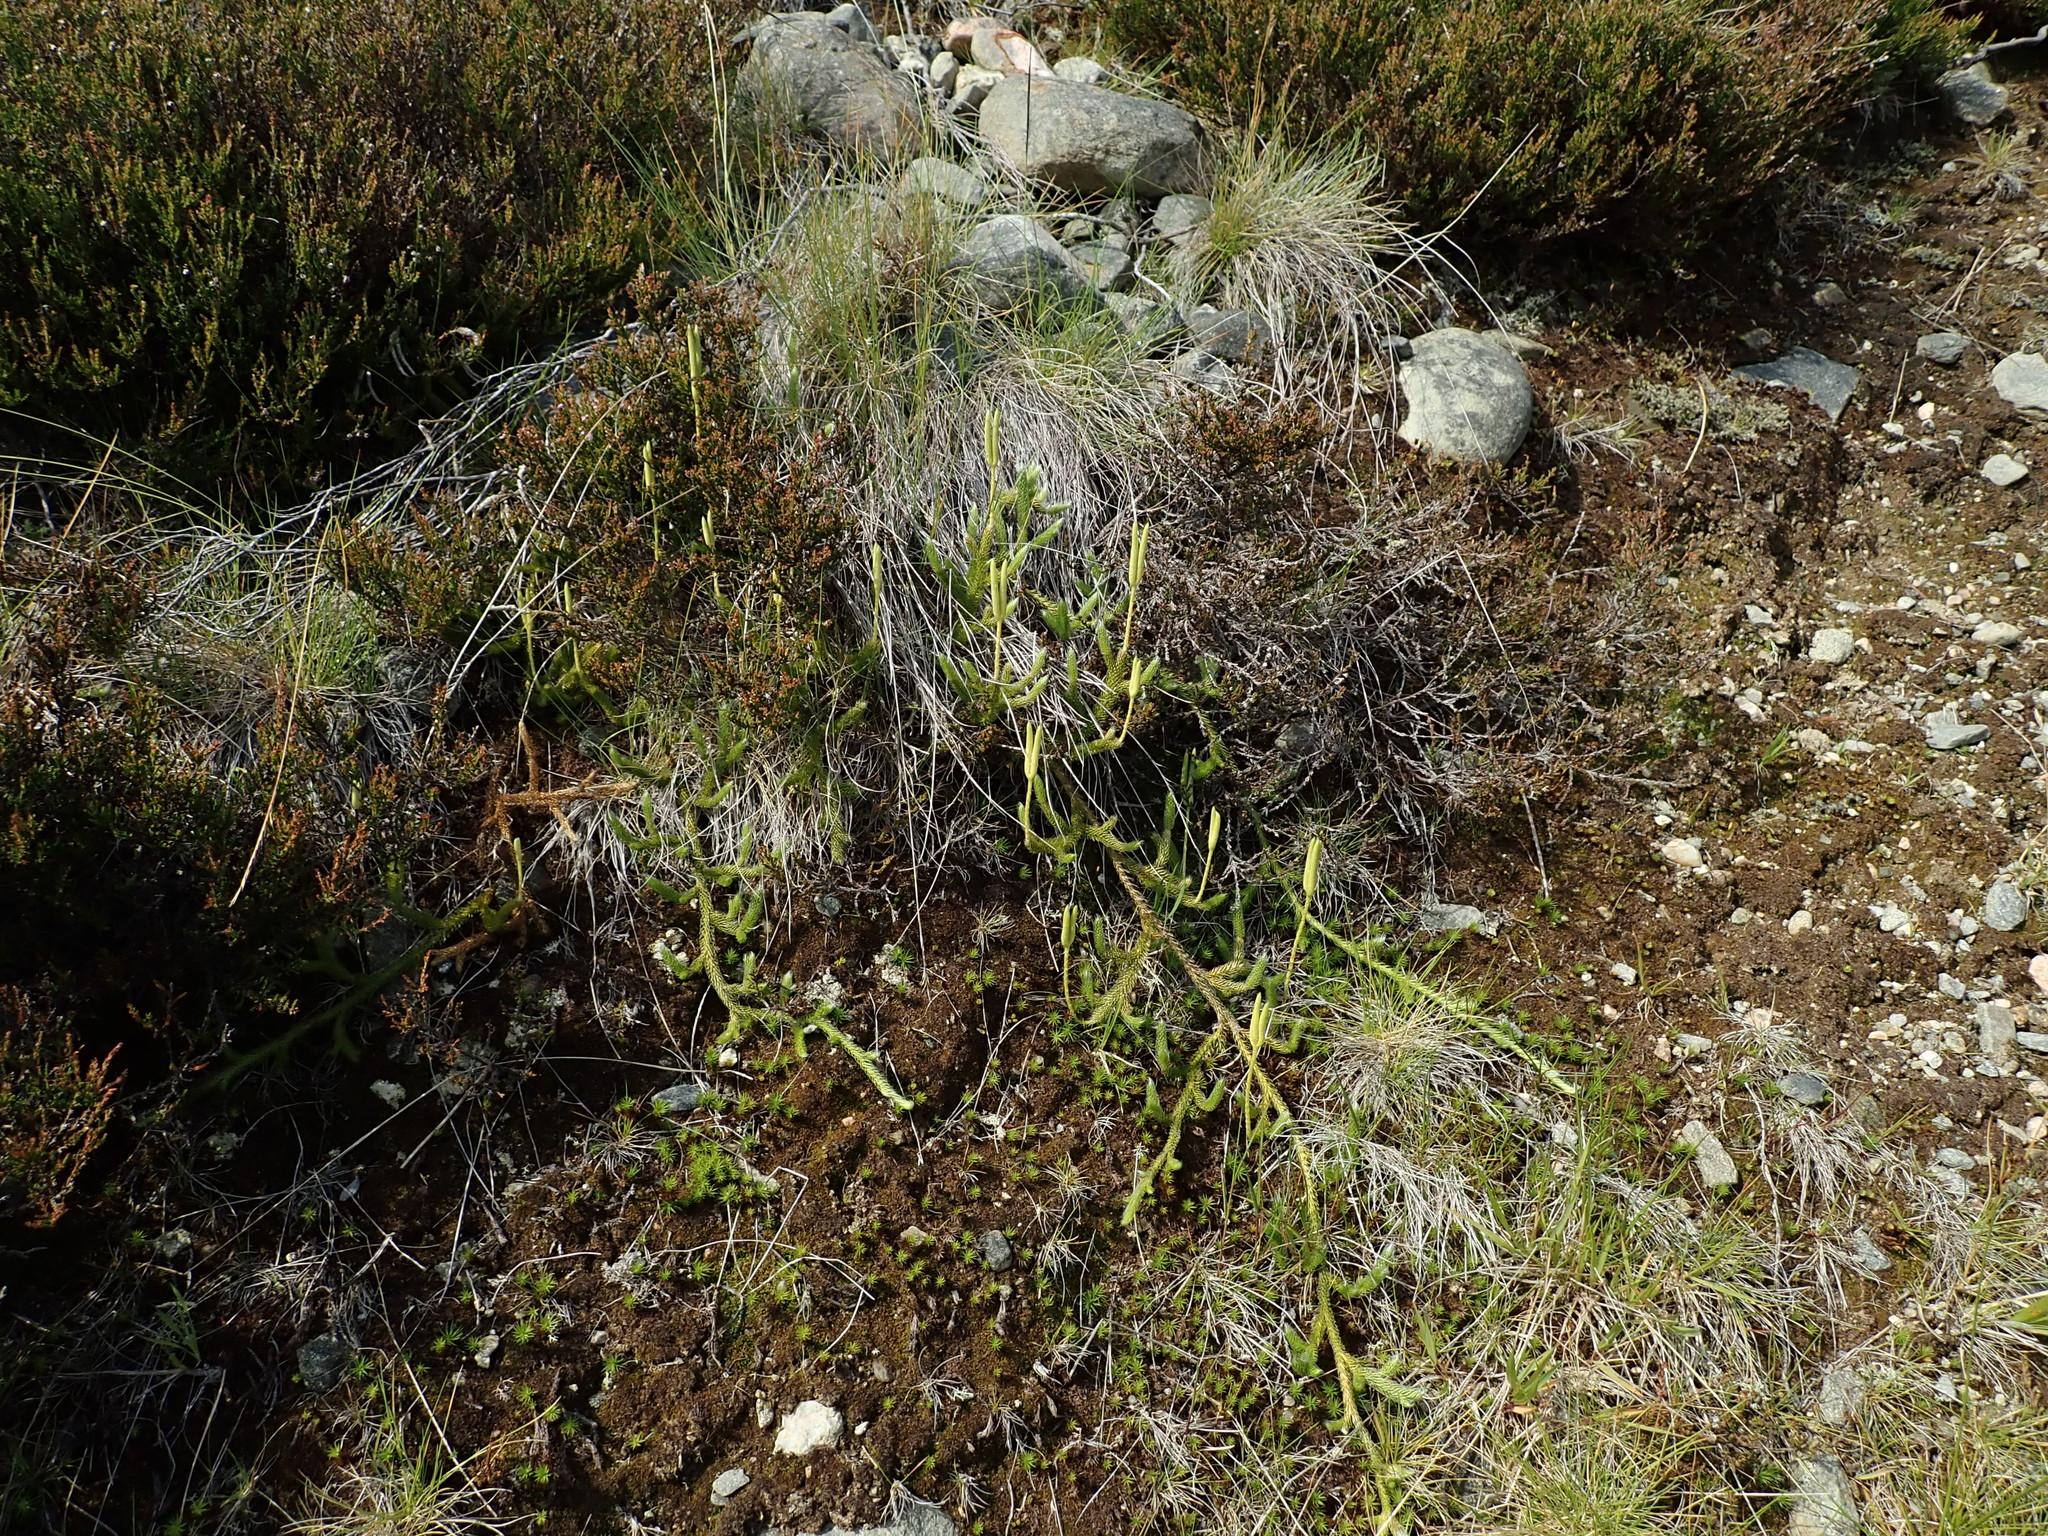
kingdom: Plantae
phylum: Tracheophyta
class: Lycopodiopsida
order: Lycopodiales
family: Lycopodiaceae
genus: Lycopodium
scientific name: Lycopodium clavatum
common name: Stag's-horn clubmoss
